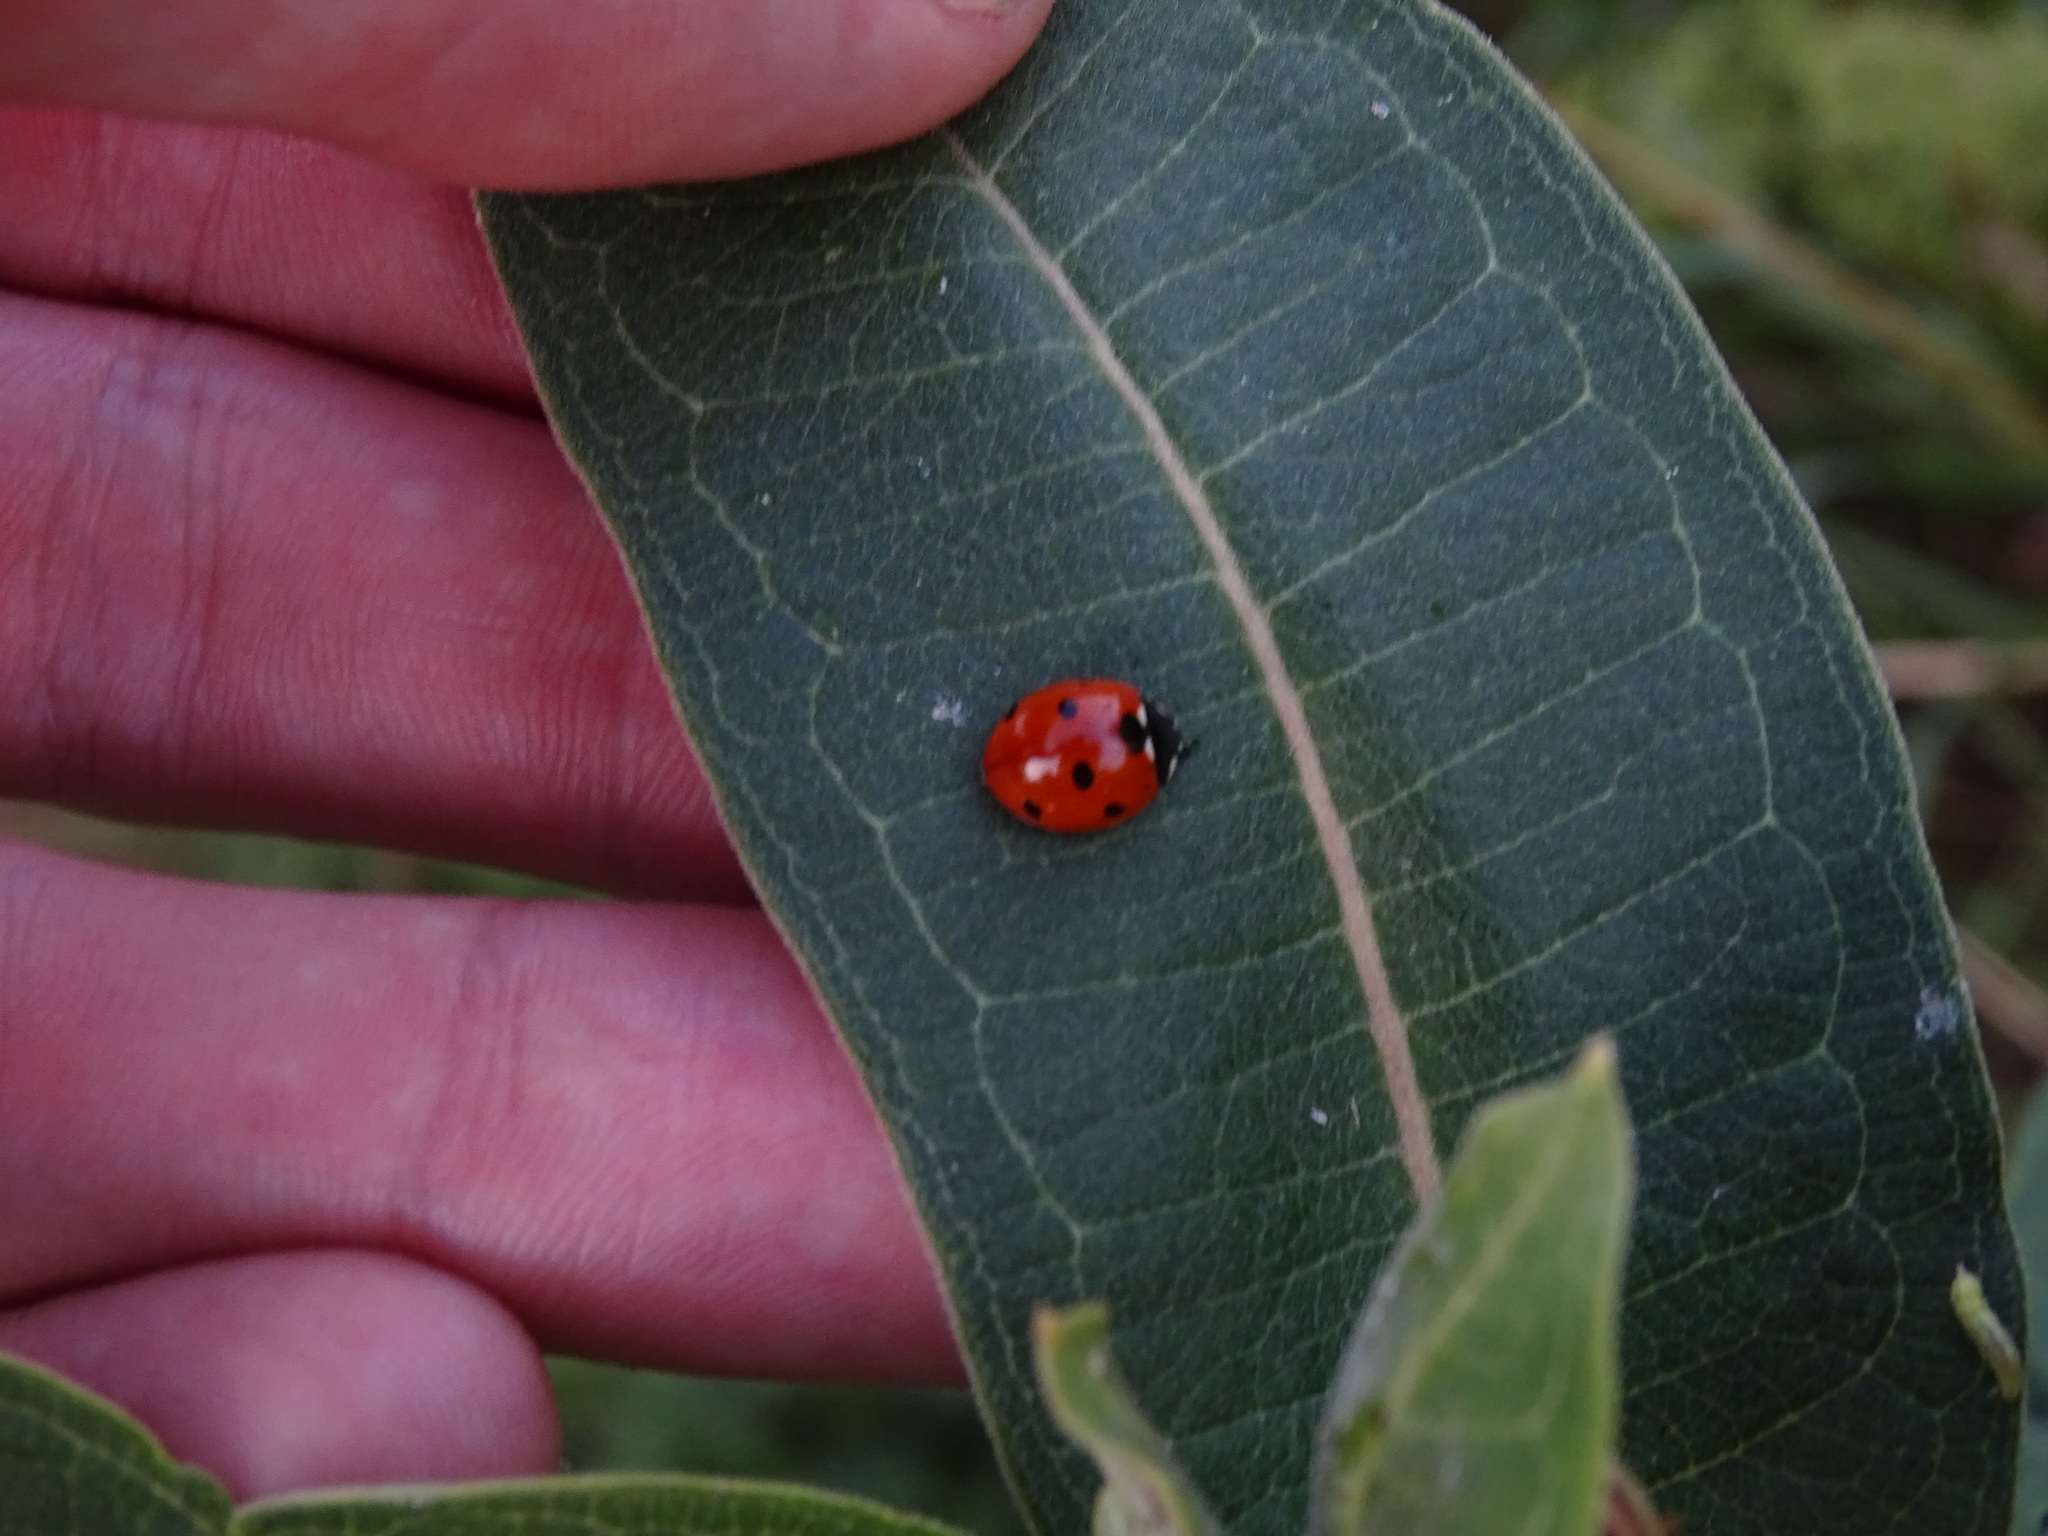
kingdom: Animalia
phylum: Arthropoda
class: Insecta
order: Coleoptera
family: Coccinellidae
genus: Coccinella
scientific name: Coccinella septempunctata
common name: Sevenspotted lady beetle
